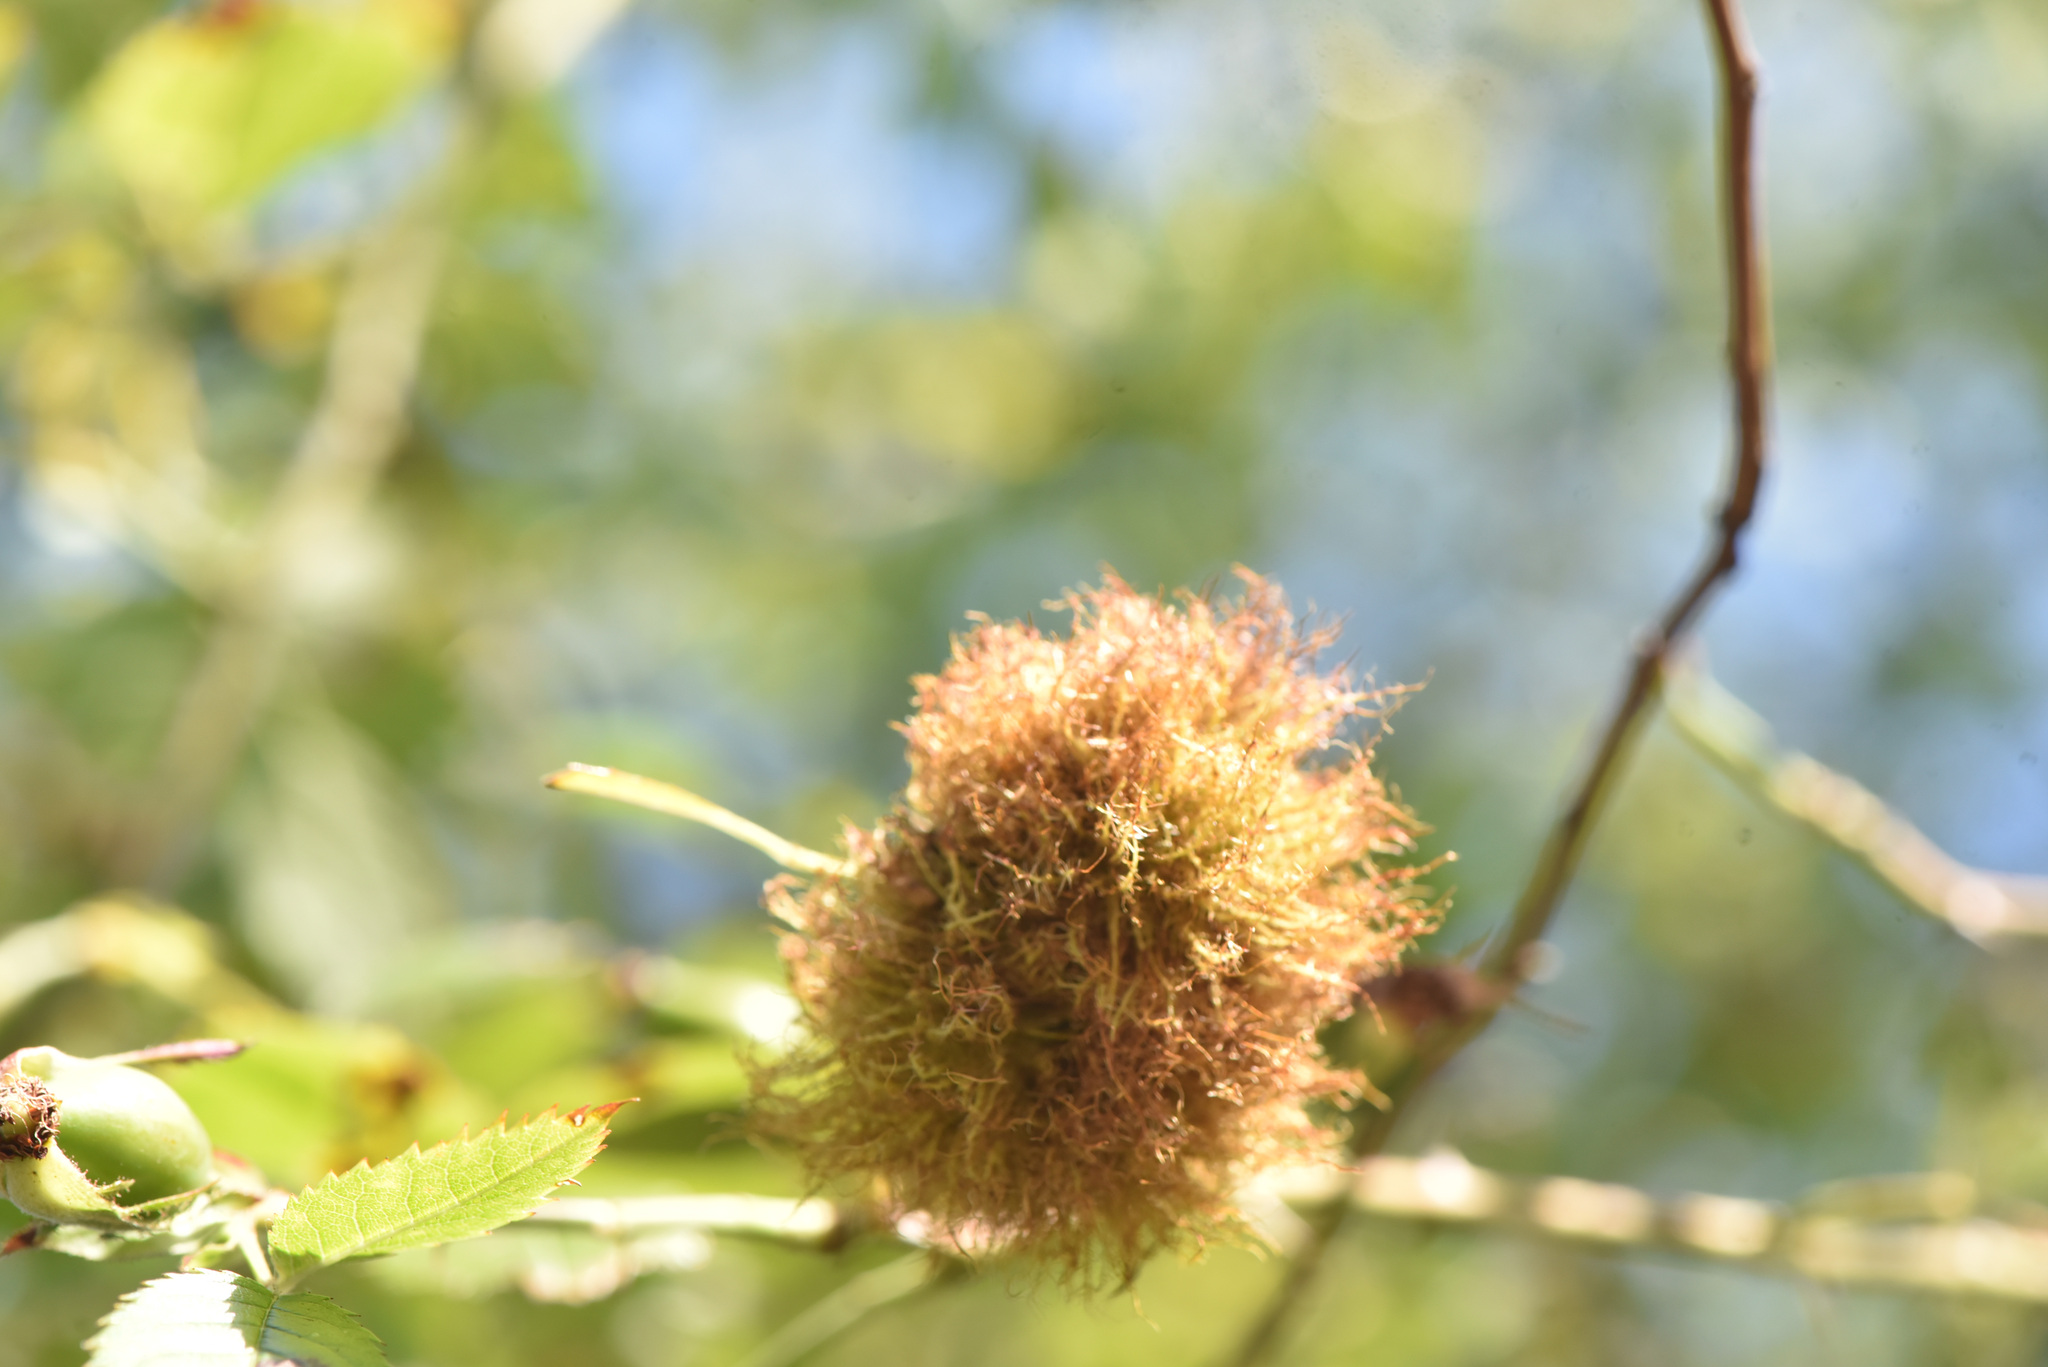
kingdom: Animalia
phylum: Arthropoda
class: Insecta
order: Hymenoptera
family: Cynipidae
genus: Diplolepis
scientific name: Diplolepis rosae
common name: Bedeguar gall
